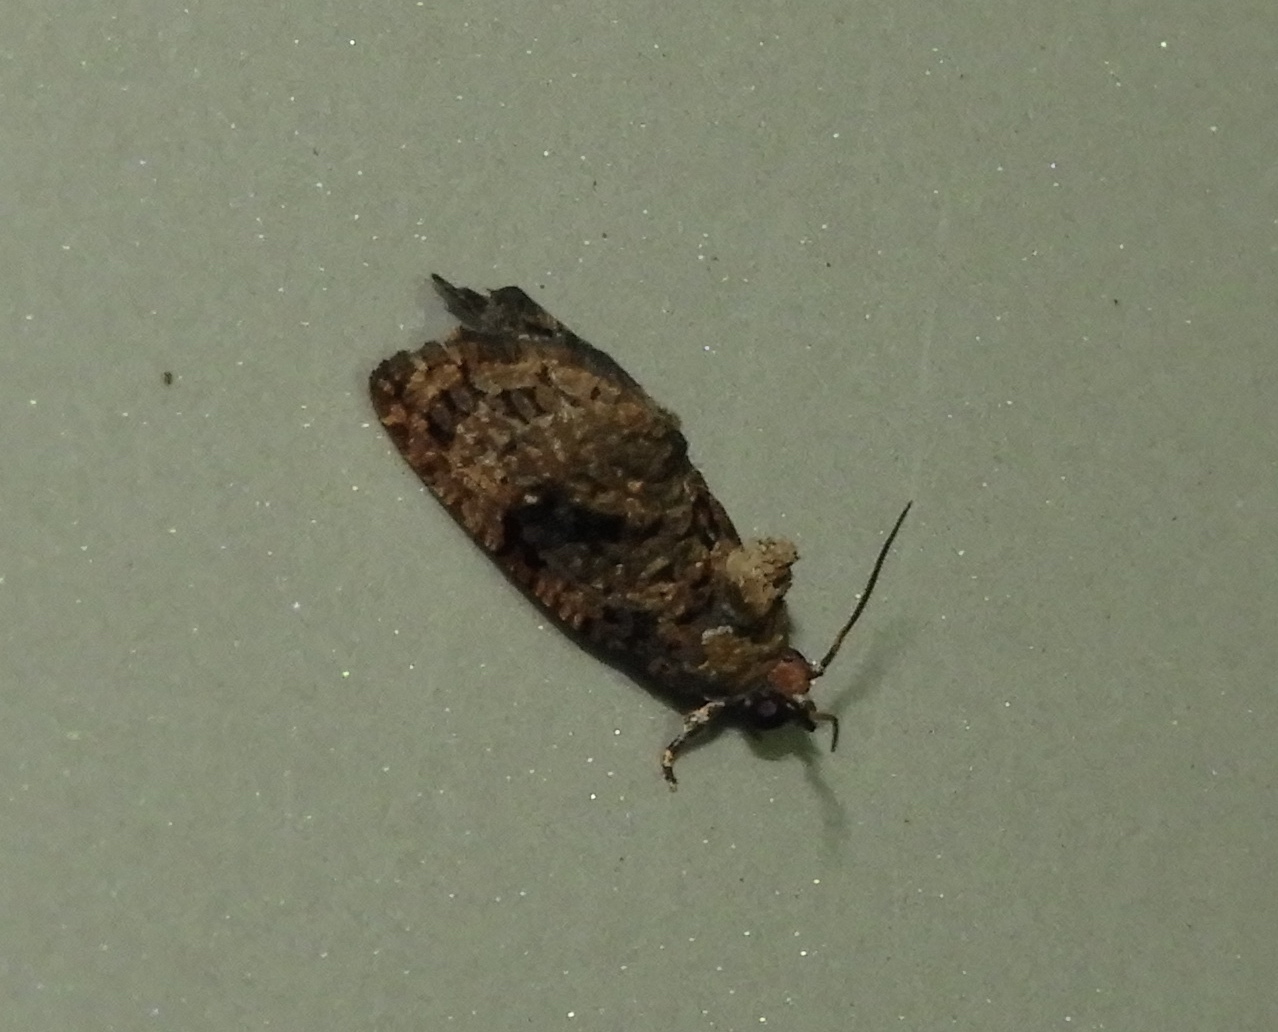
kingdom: Animalia
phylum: Arthropoda
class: Insecta
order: Lepidoptera
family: Tortricidae
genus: Gymnandrosoma
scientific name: Gymnandrosoma
